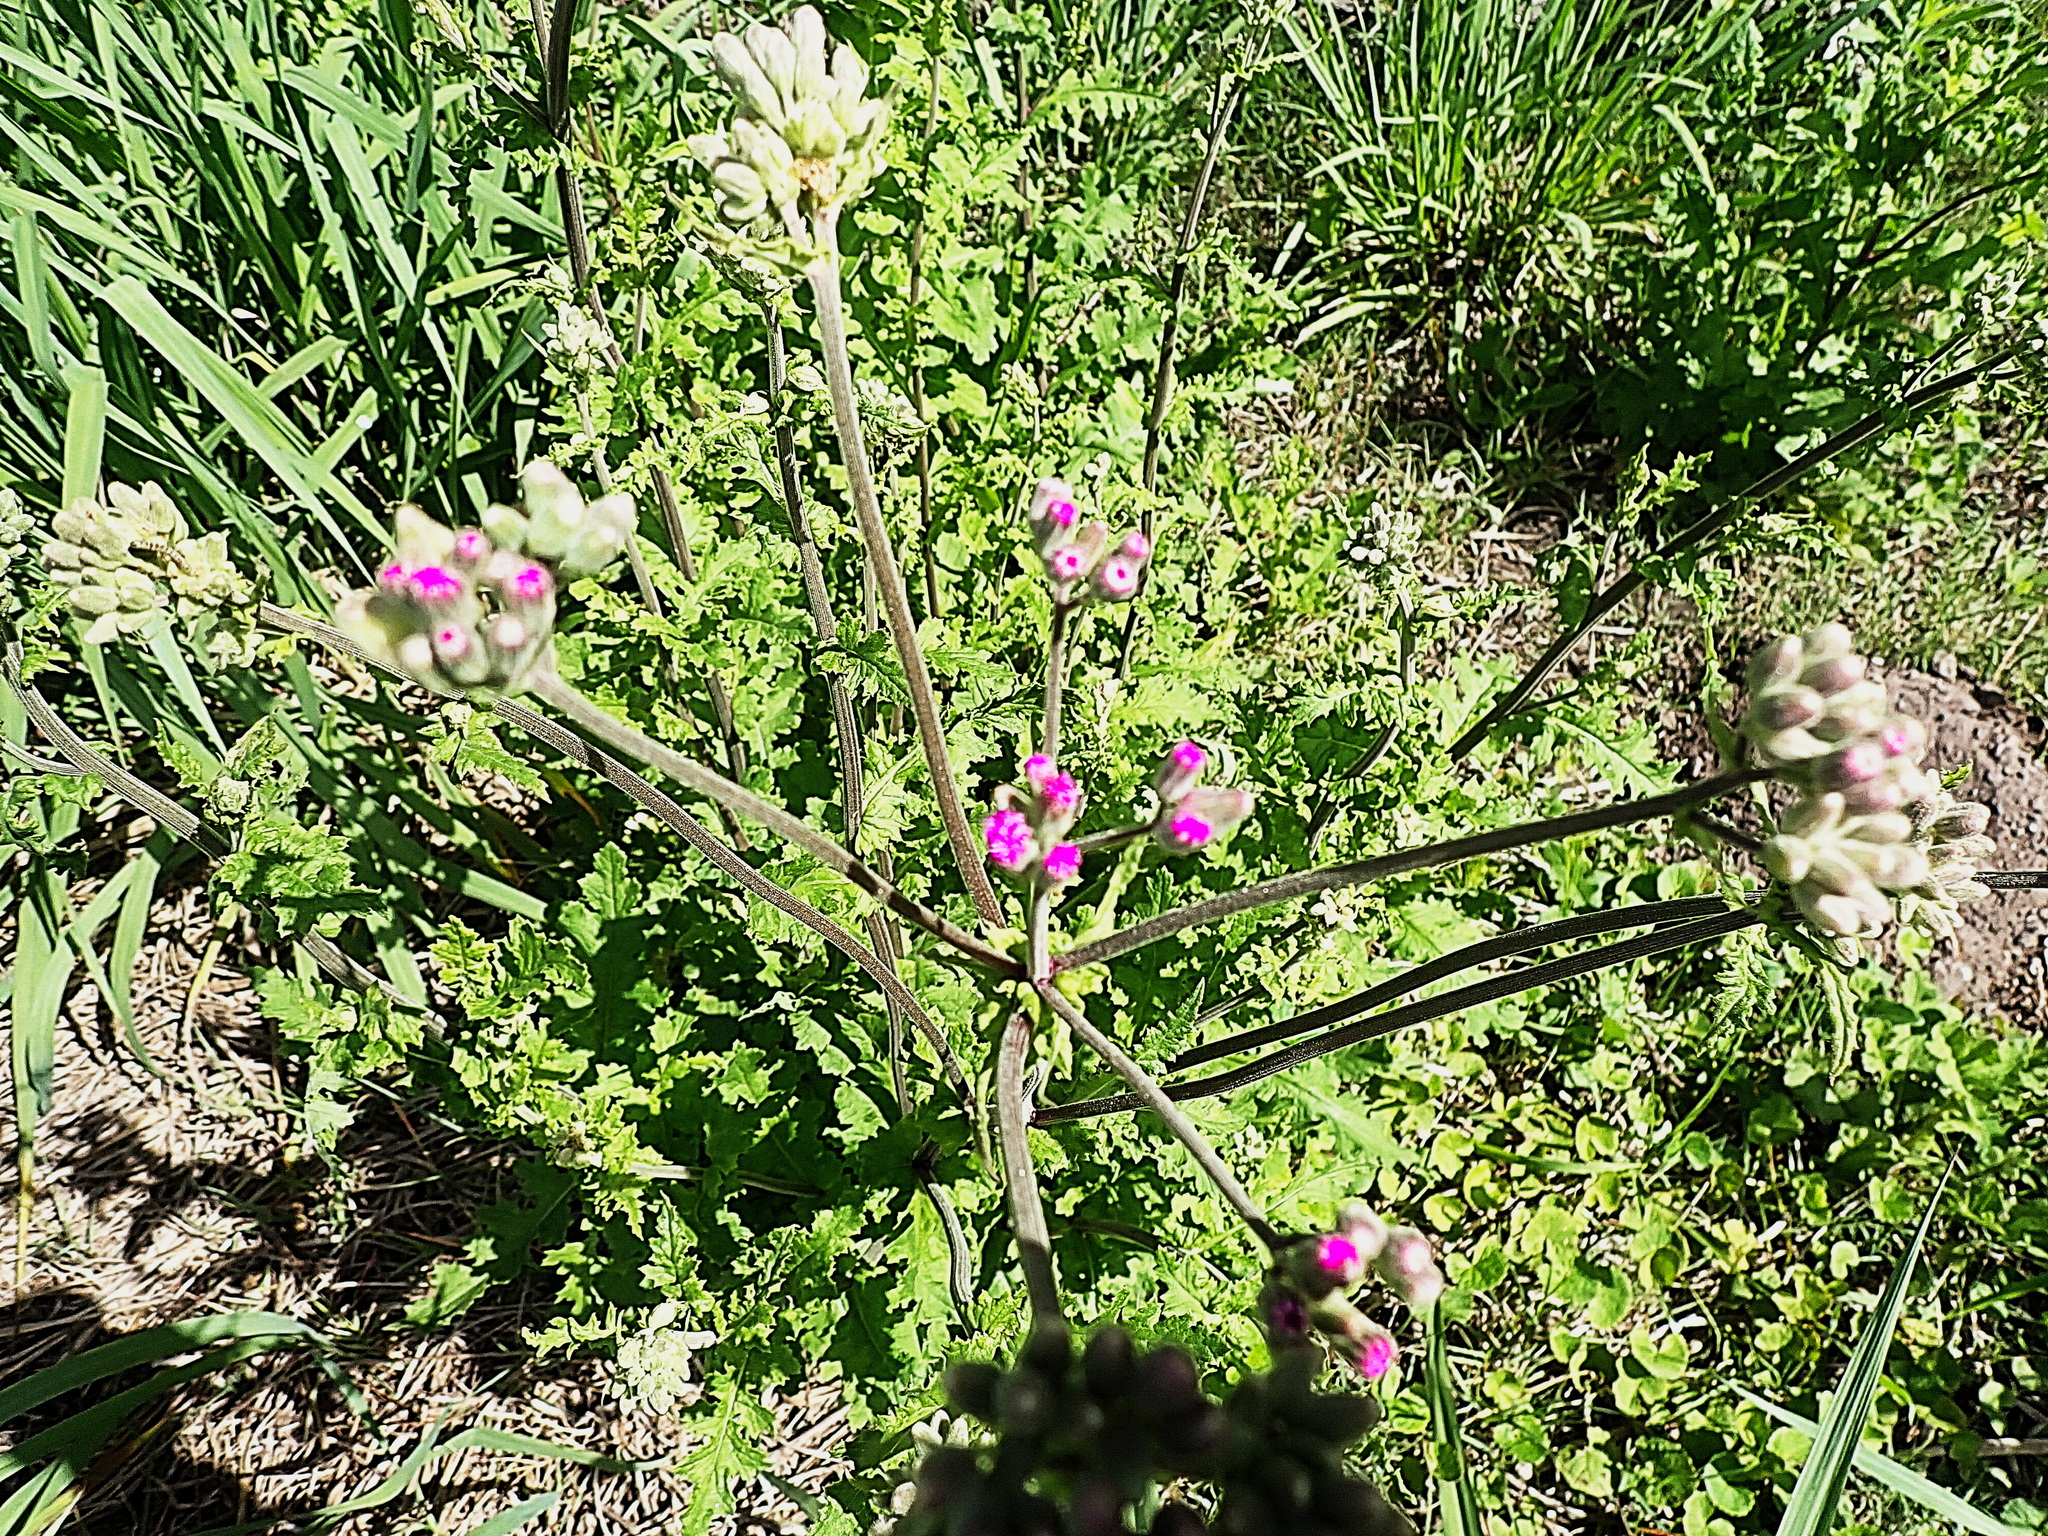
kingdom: Plantae
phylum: Tracheophyta
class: Magnoliopsida
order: Asterales
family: Asteraceae
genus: Senecio
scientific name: Senecio purpureus
